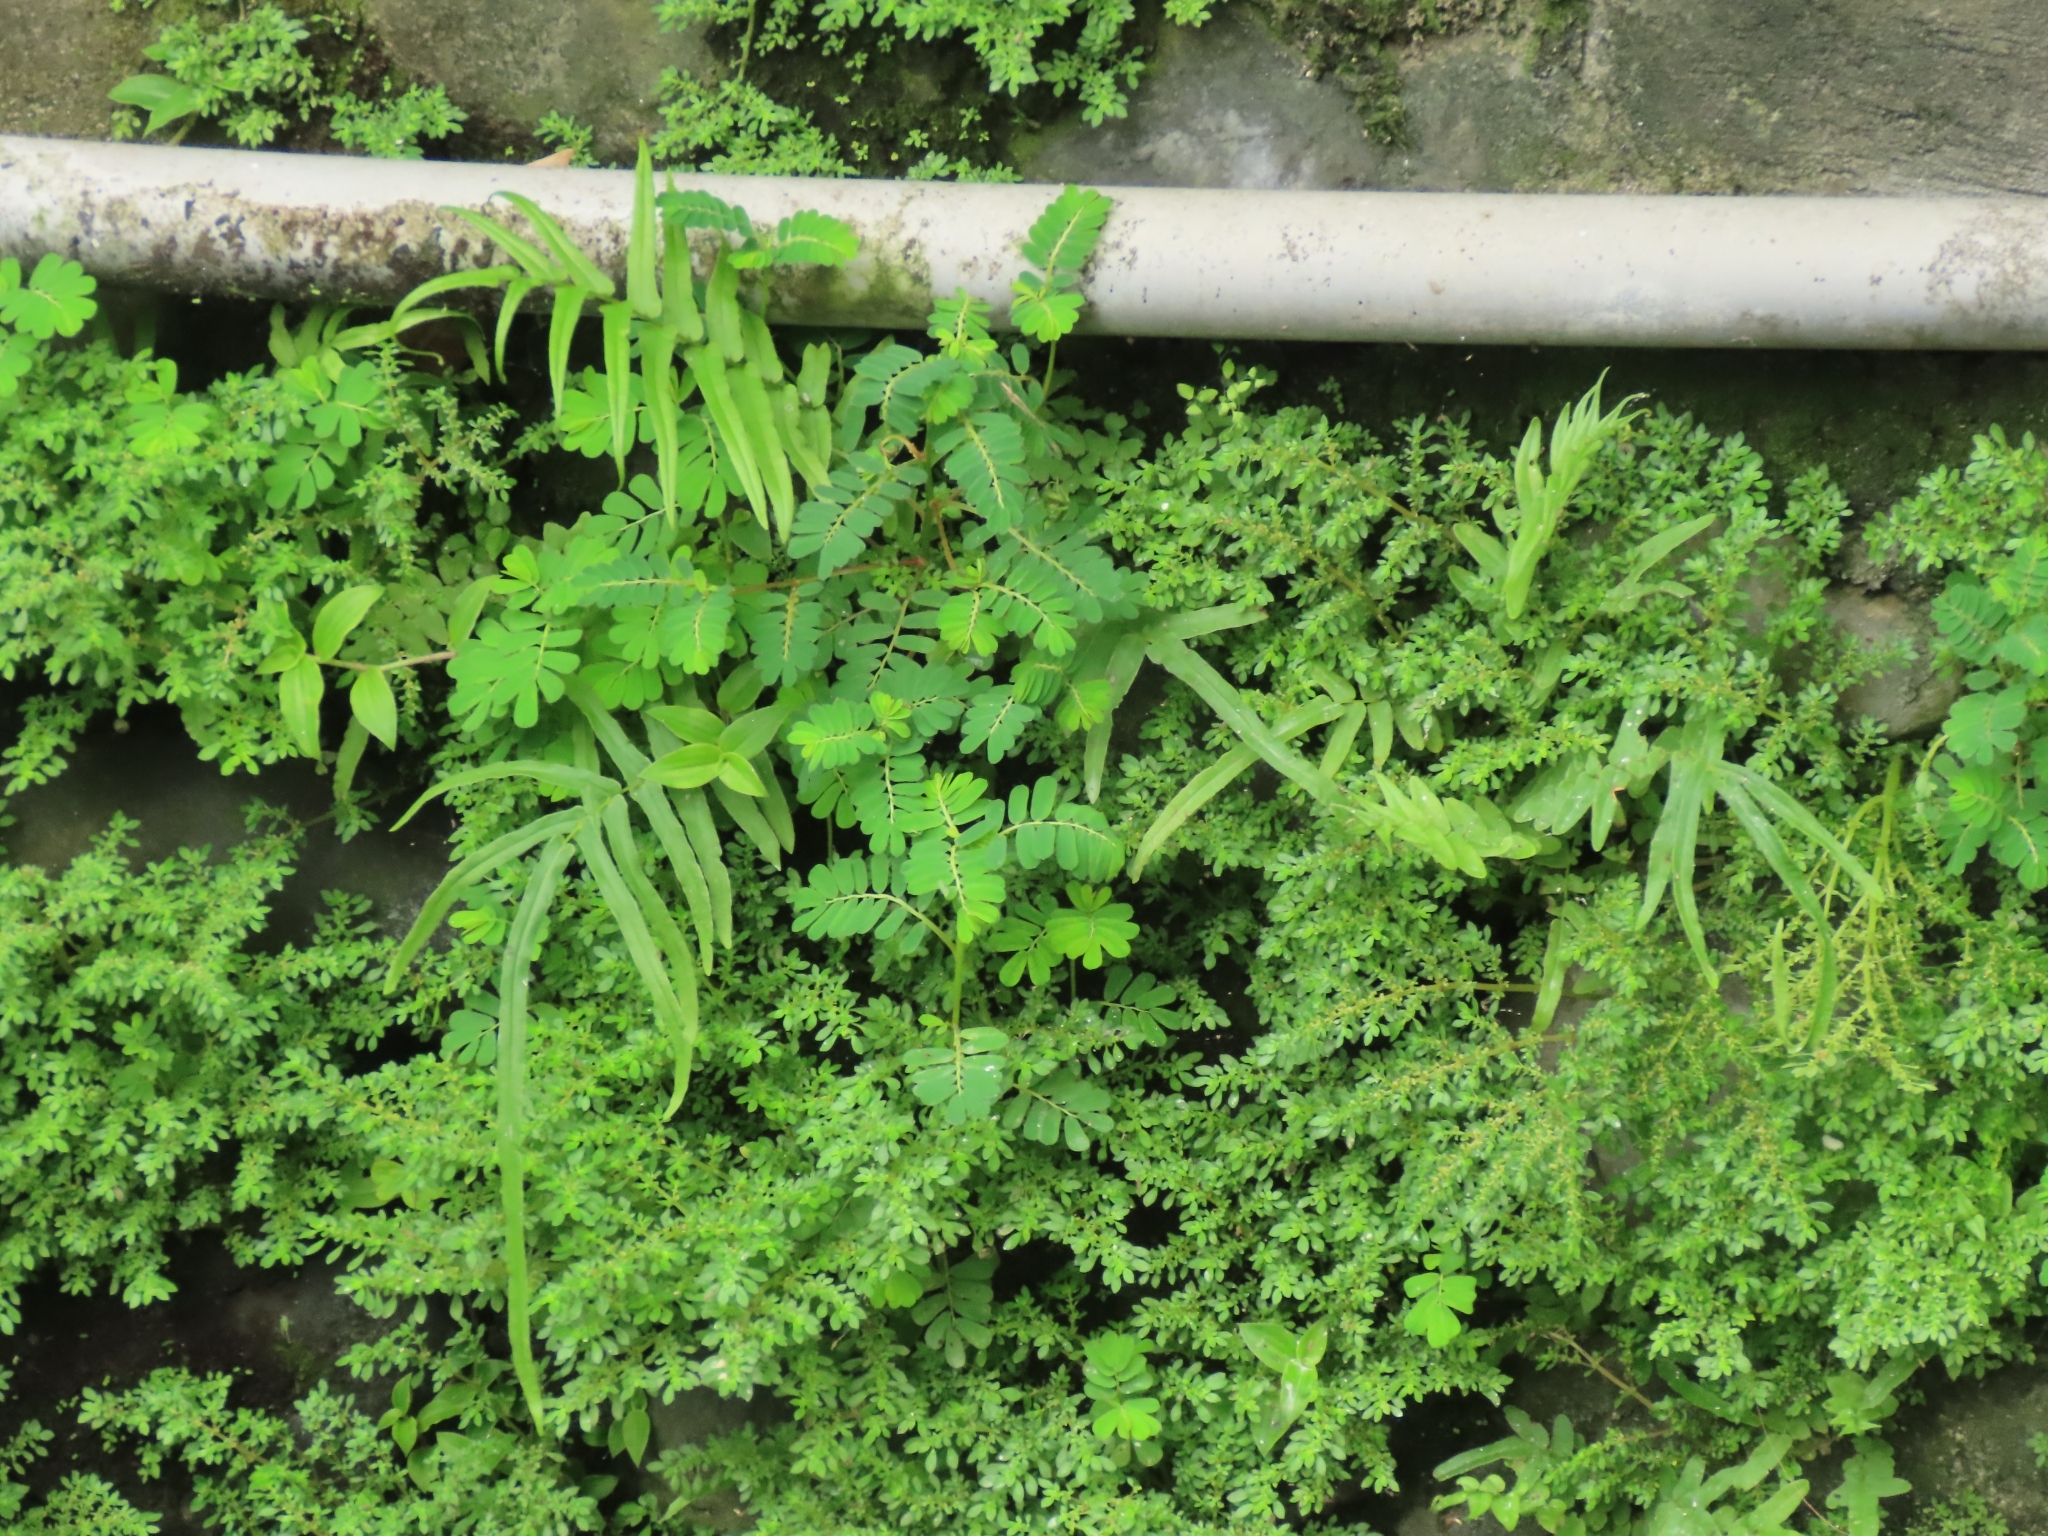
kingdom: Plantae
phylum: Tracheophyta
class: Polypodiopsida
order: Polypodiales
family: Pteridaceae
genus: Pteris
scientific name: Pteris vittata
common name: Ladder brake
